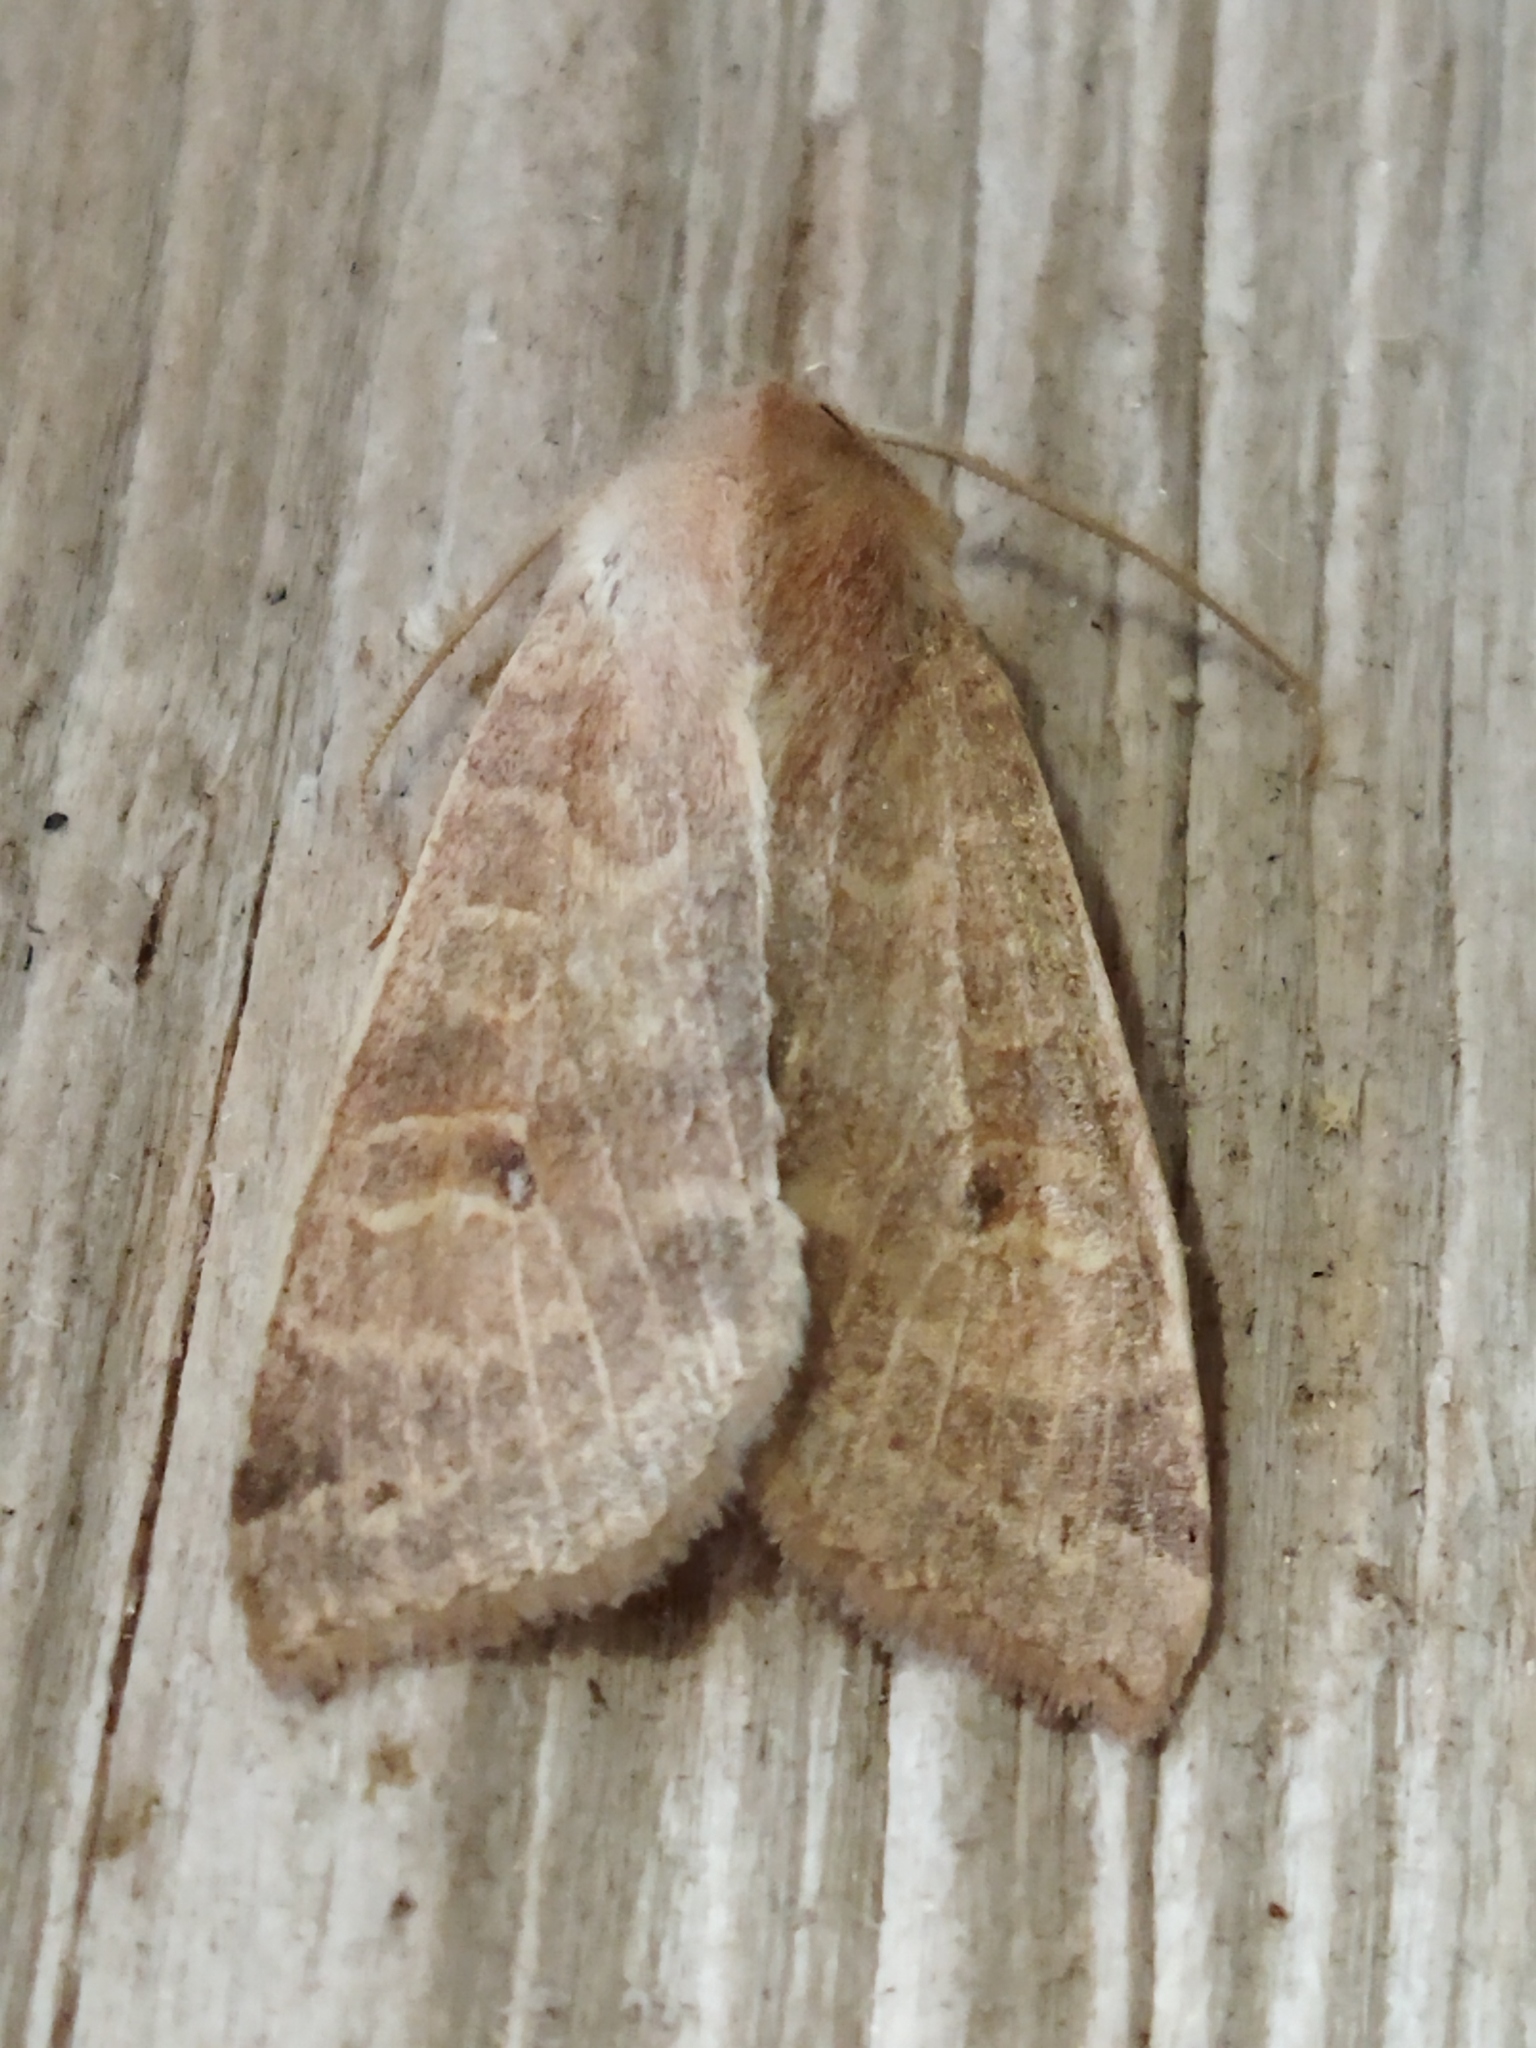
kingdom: Animalia
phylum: Arthropoda
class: Insecta
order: Lepidoptera
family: Noctuidae
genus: Xanthia
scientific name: Xanthia ocellaris
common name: Pale-lemon sallow
